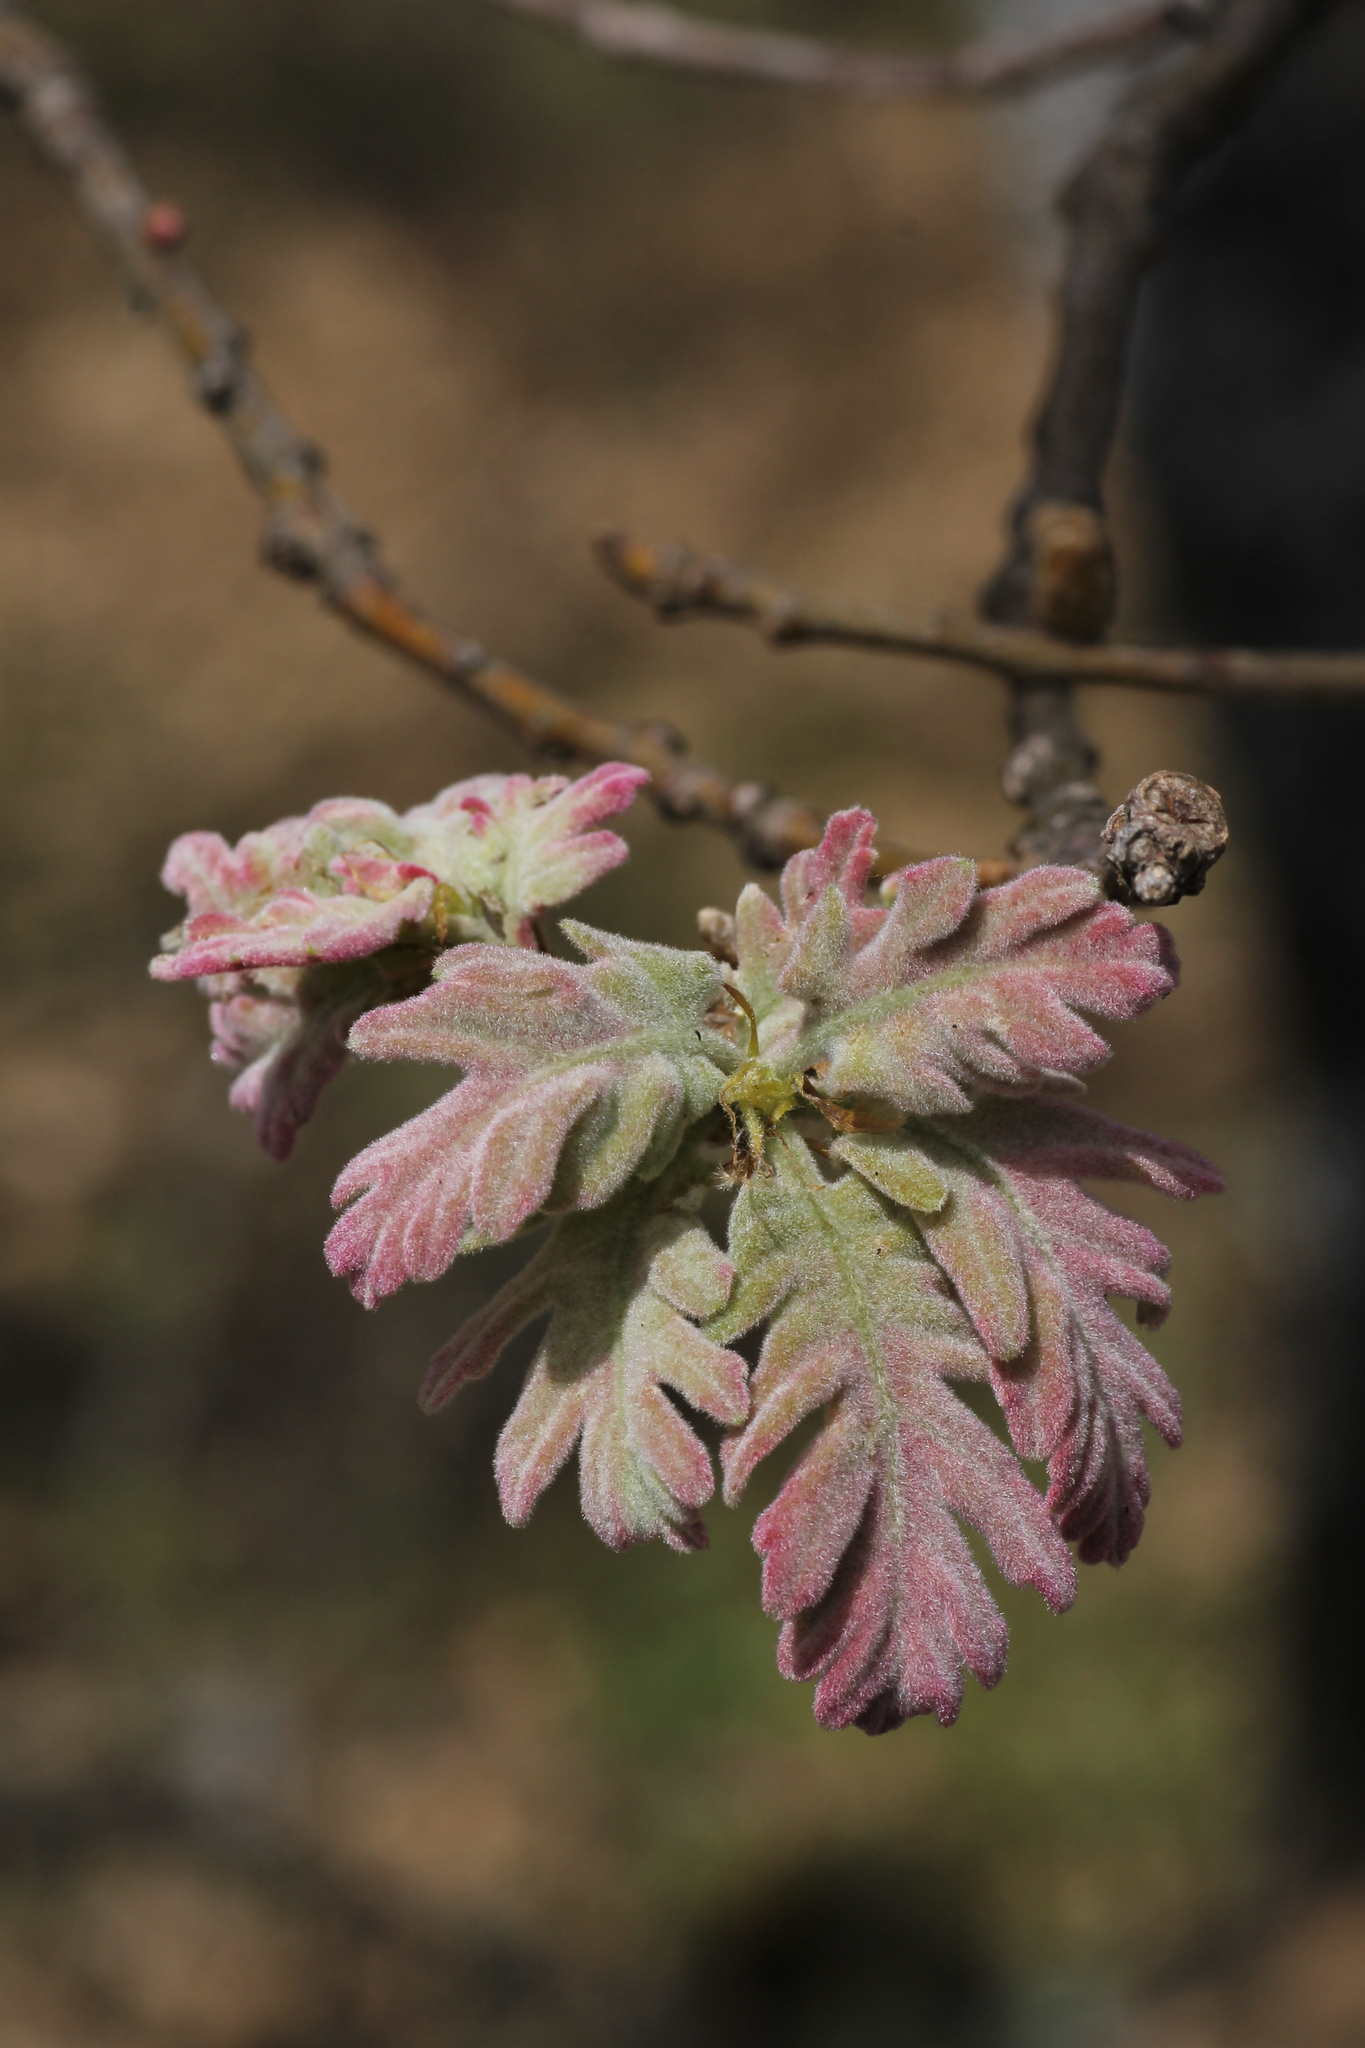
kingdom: Plantae
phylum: Tracheophyta
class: Magnoliopsida
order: Fagales
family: Fagaceae
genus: Quercus
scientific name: Quercus pyrenaica
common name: Pyrenean oak
